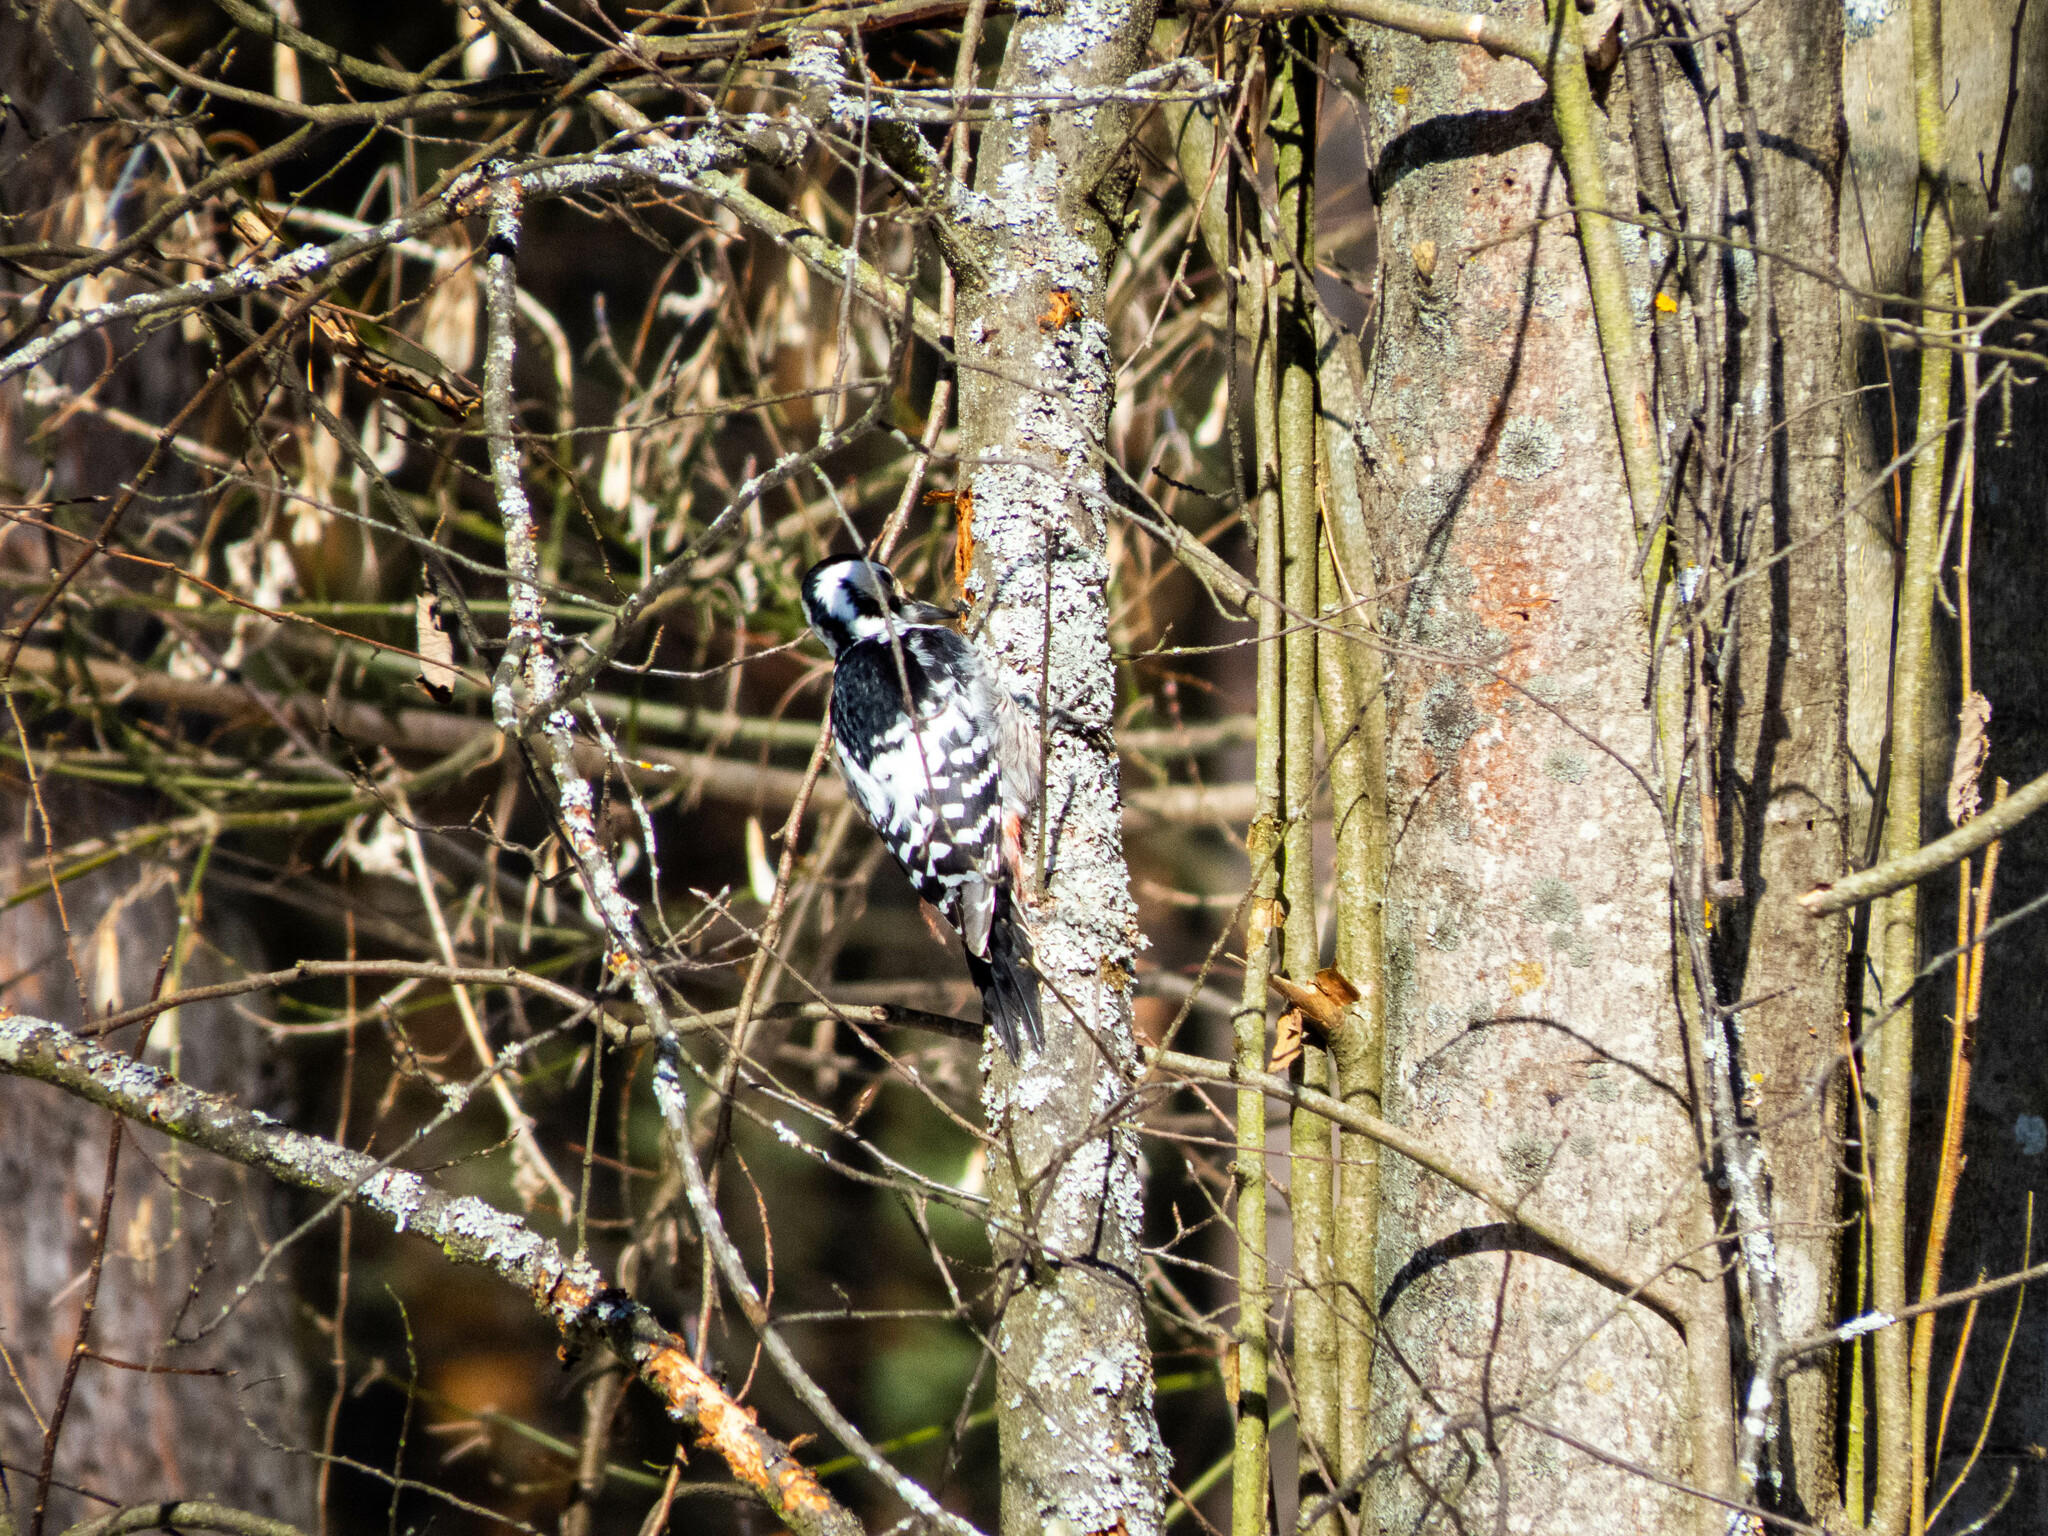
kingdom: Animalia
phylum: Chordata
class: Aves
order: Piciformes
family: Picidae
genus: Dendrocopos
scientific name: Dendrocopos leucotos
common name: White-backed woodpecker
